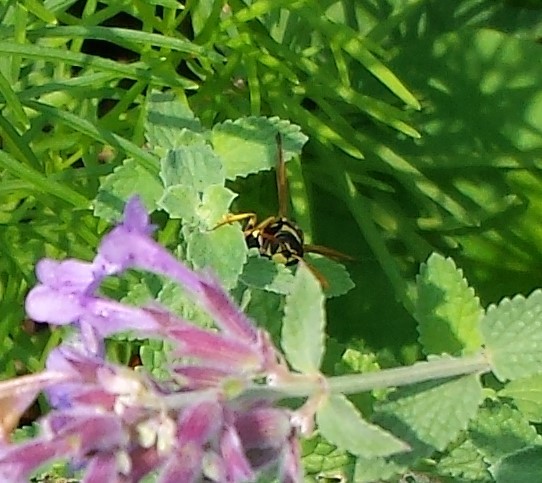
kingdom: Animalia
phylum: Arthropoda
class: Insecta
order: Hymenoptera
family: Eumenidae
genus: Polistes
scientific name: Polistes dominula
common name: Paper wasp
